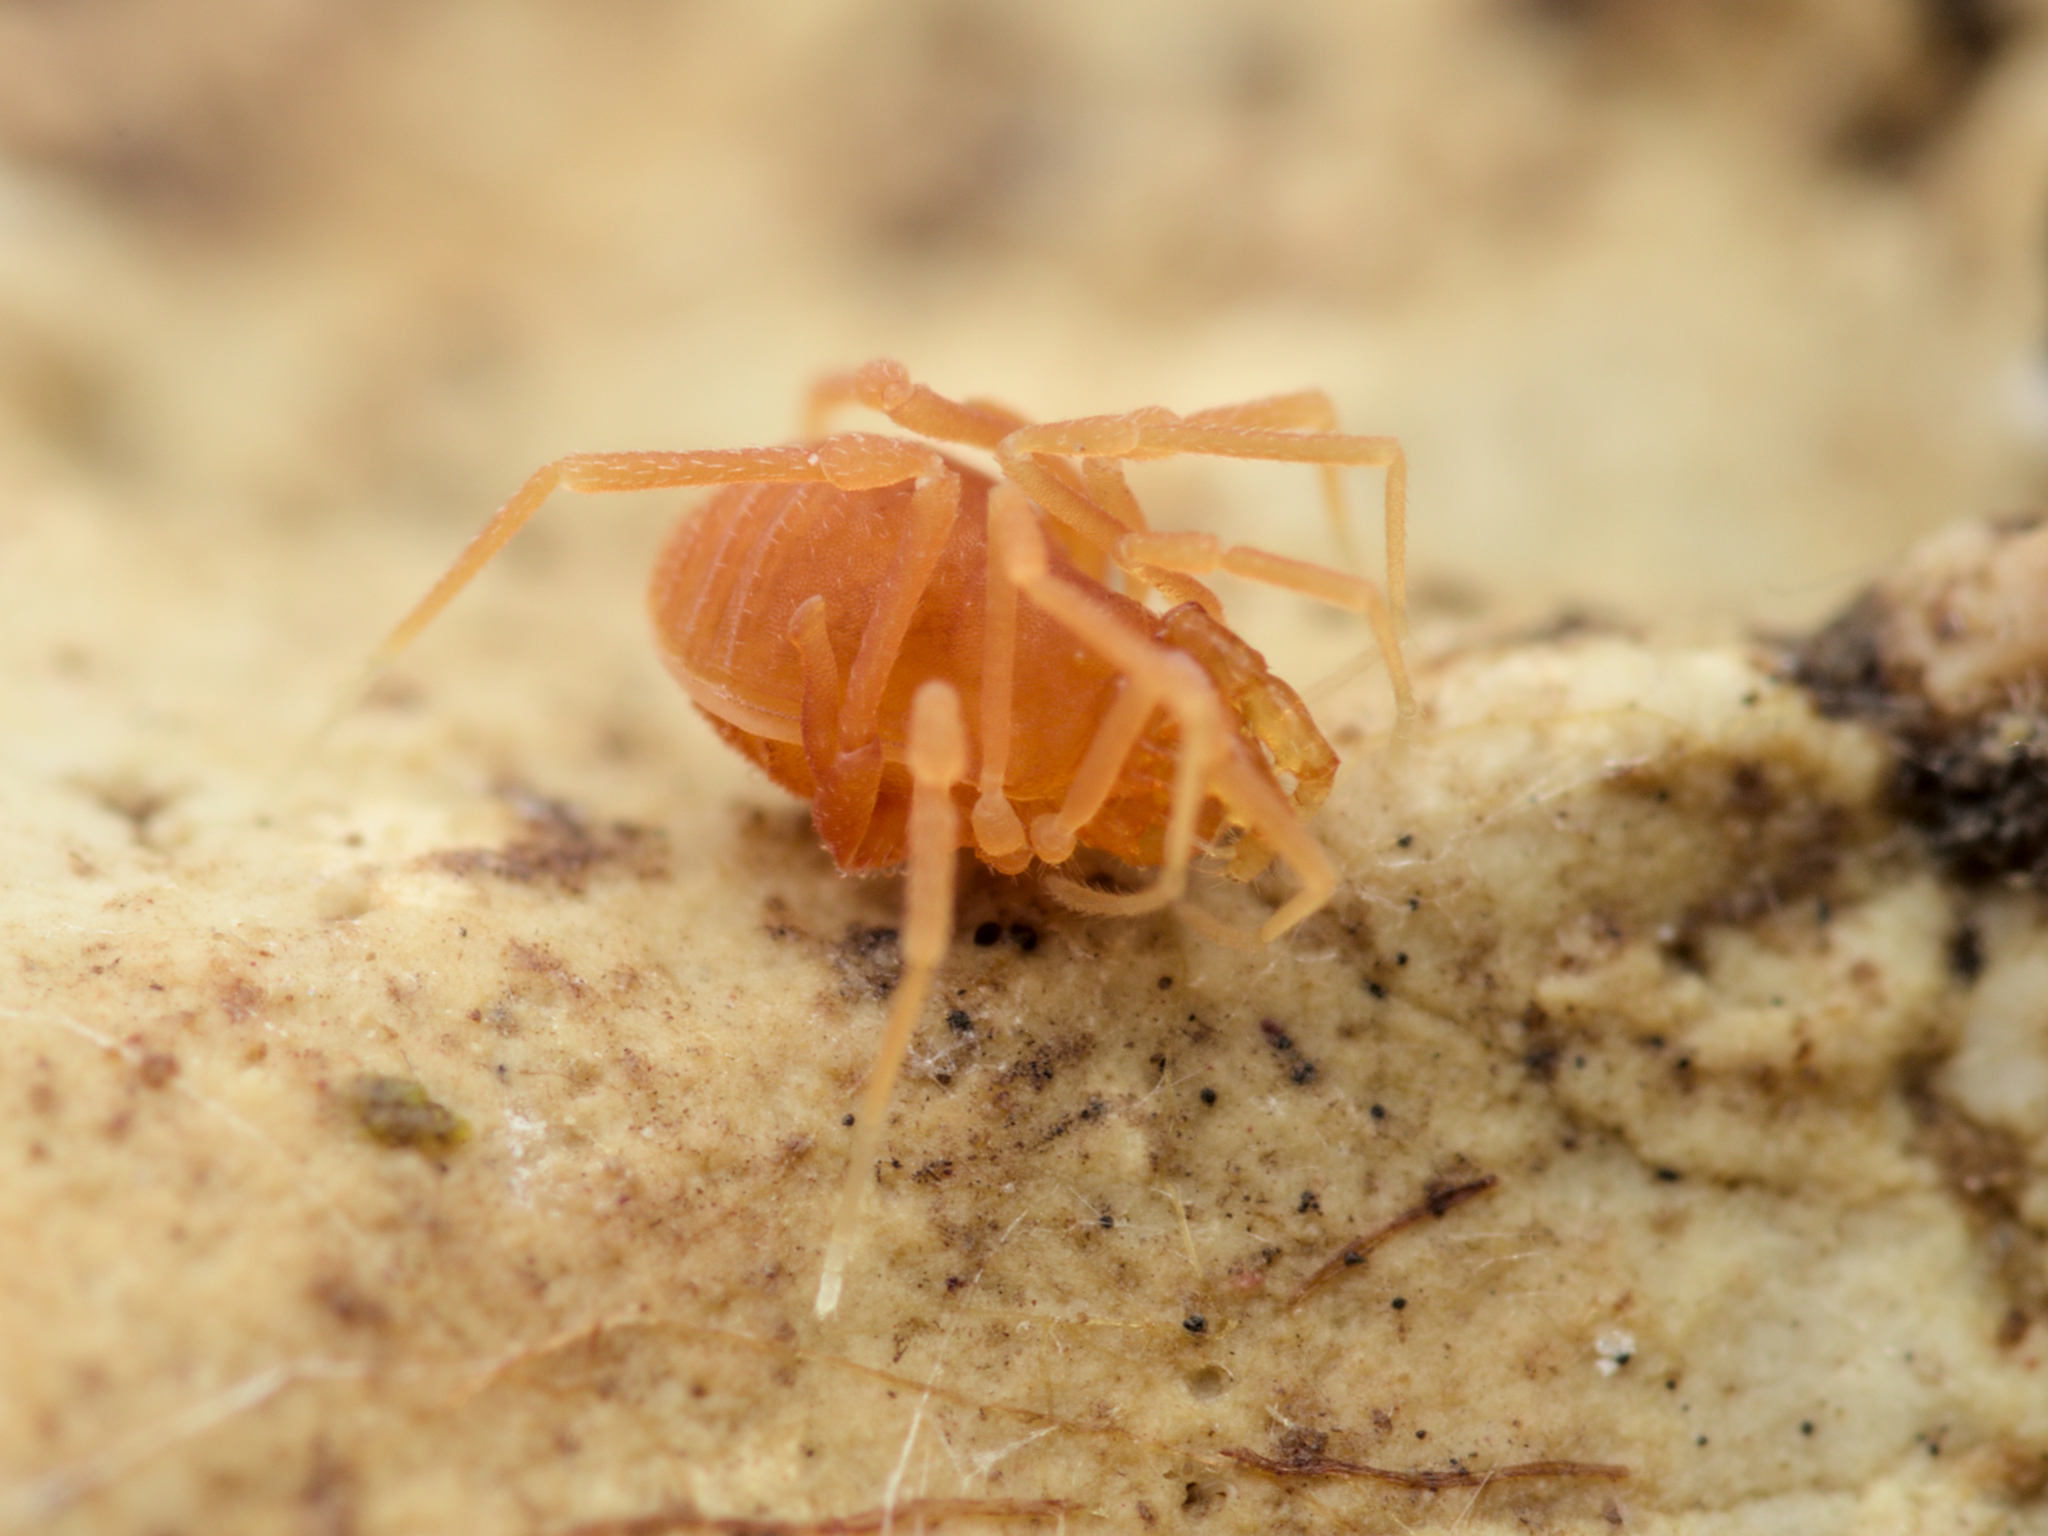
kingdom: Animalia
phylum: Arthropoda
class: Arachnida
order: Opiliones
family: Phalangodidae
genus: Scotolemon
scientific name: Scotolemon doriae
